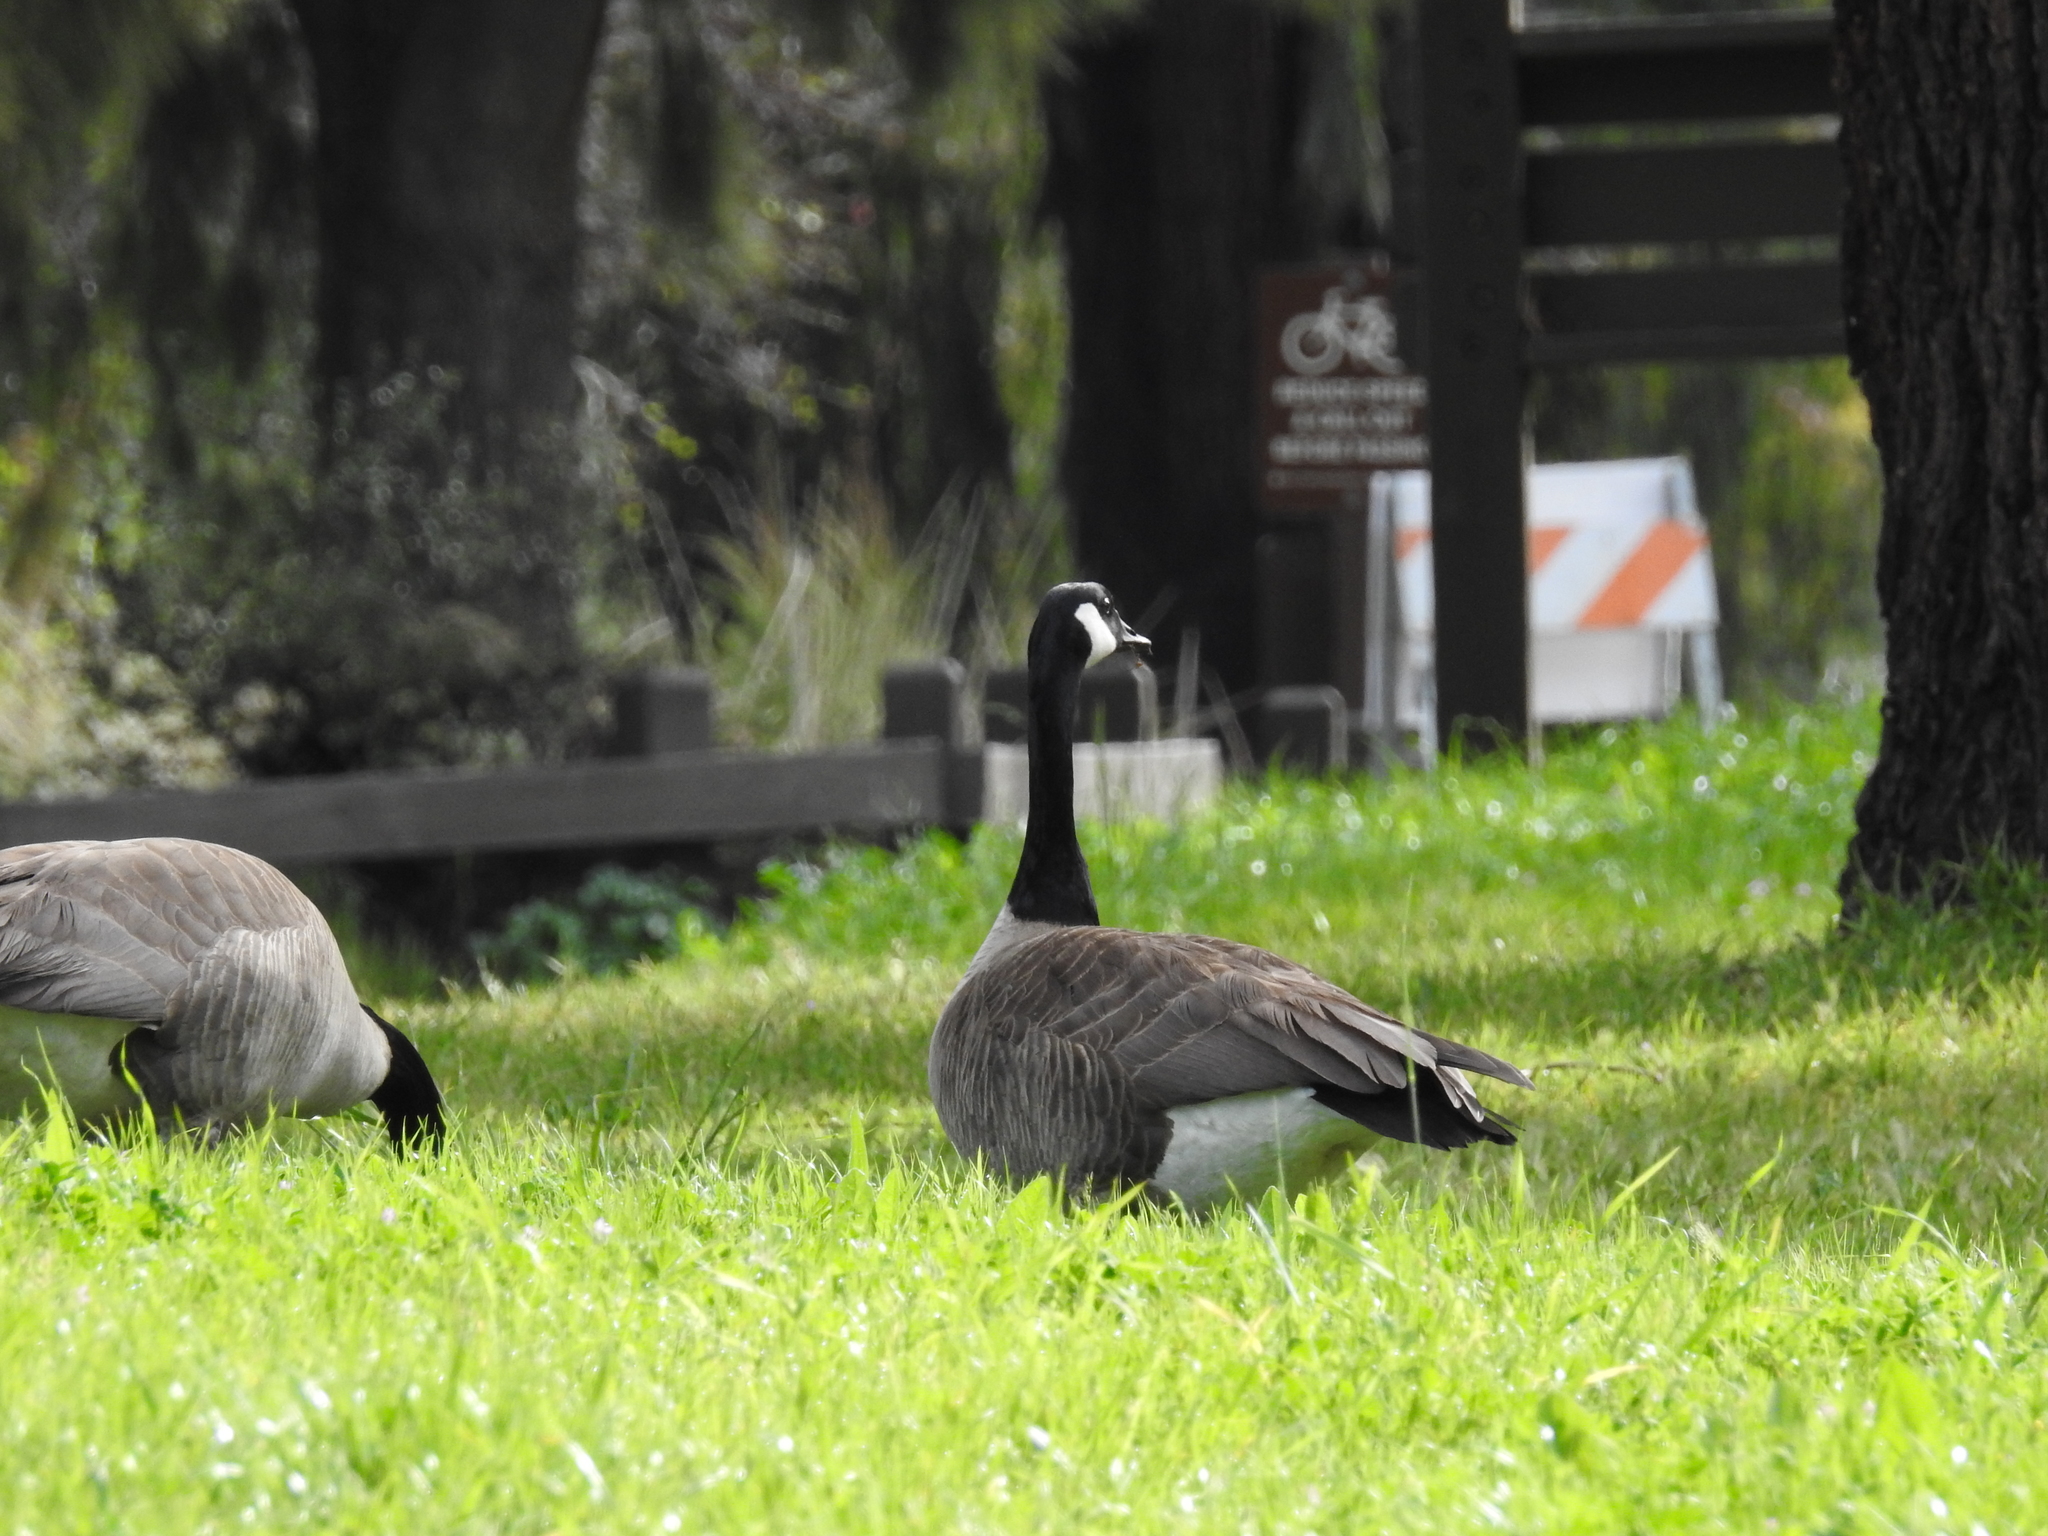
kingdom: Animalia
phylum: Chordata
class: Aves
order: Anseriformes
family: Anatidae
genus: Branta
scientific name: Branta canadensis
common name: Canada goose
